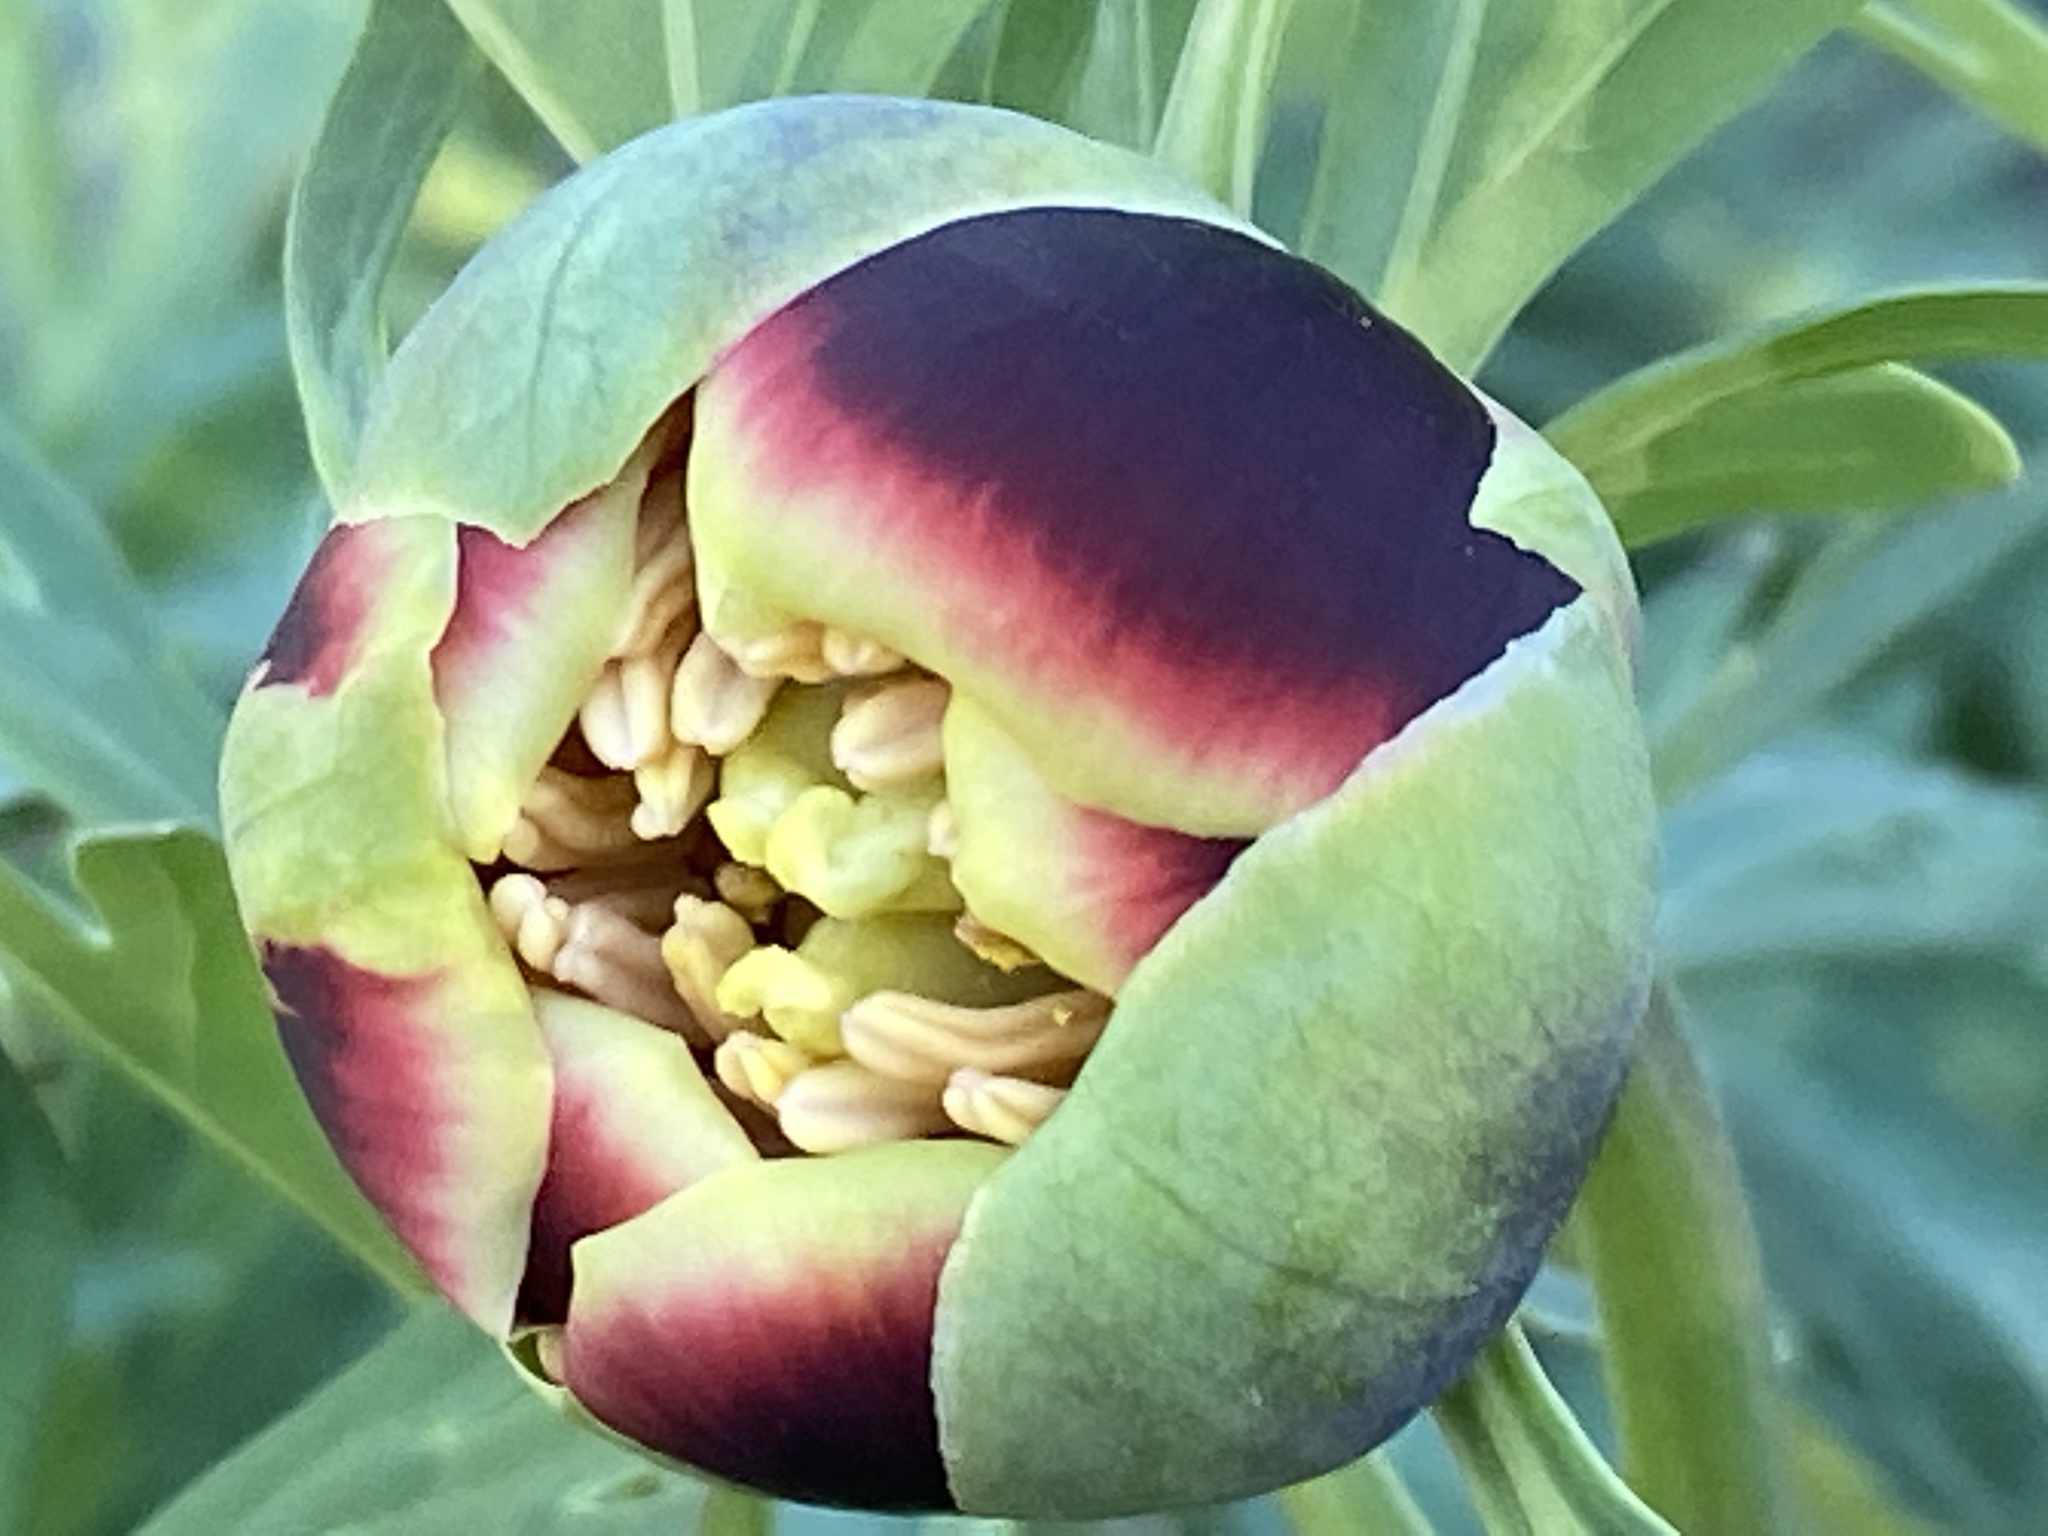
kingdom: Plantae
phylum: Tracheophyta
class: Magnoliopsida
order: Saxifragales
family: Paeoniaceae
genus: Paeonia
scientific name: Paeonia californica
